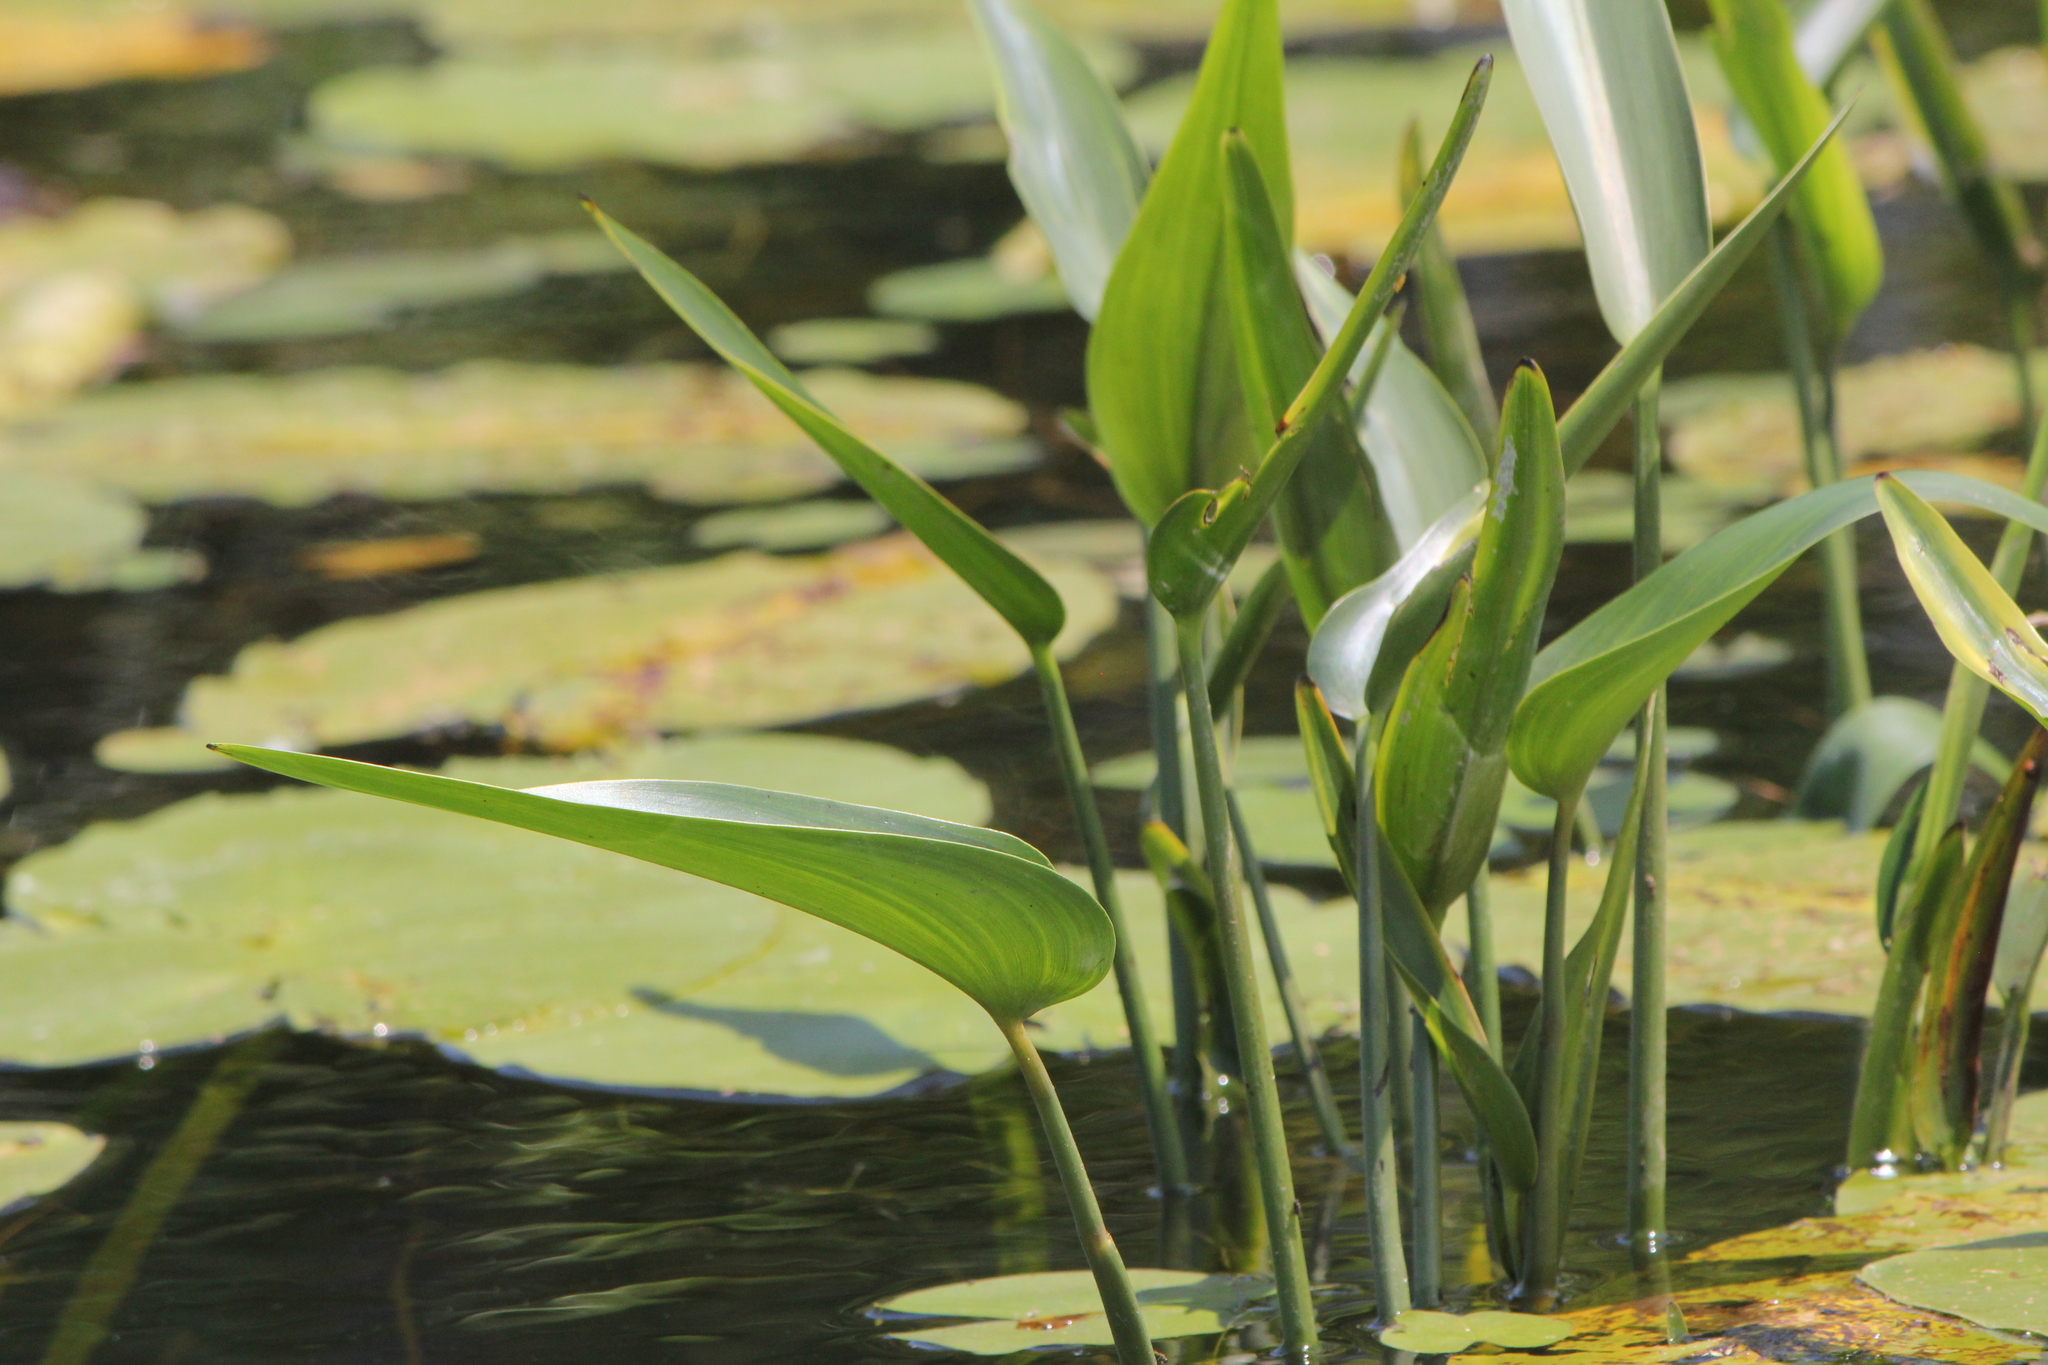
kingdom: Plantae
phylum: Tracheophyta
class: Liliopsida
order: Commelinales
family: Pontederiaceae
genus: Pontederia
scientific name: Pontederia cordata
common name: Pickerelweed
